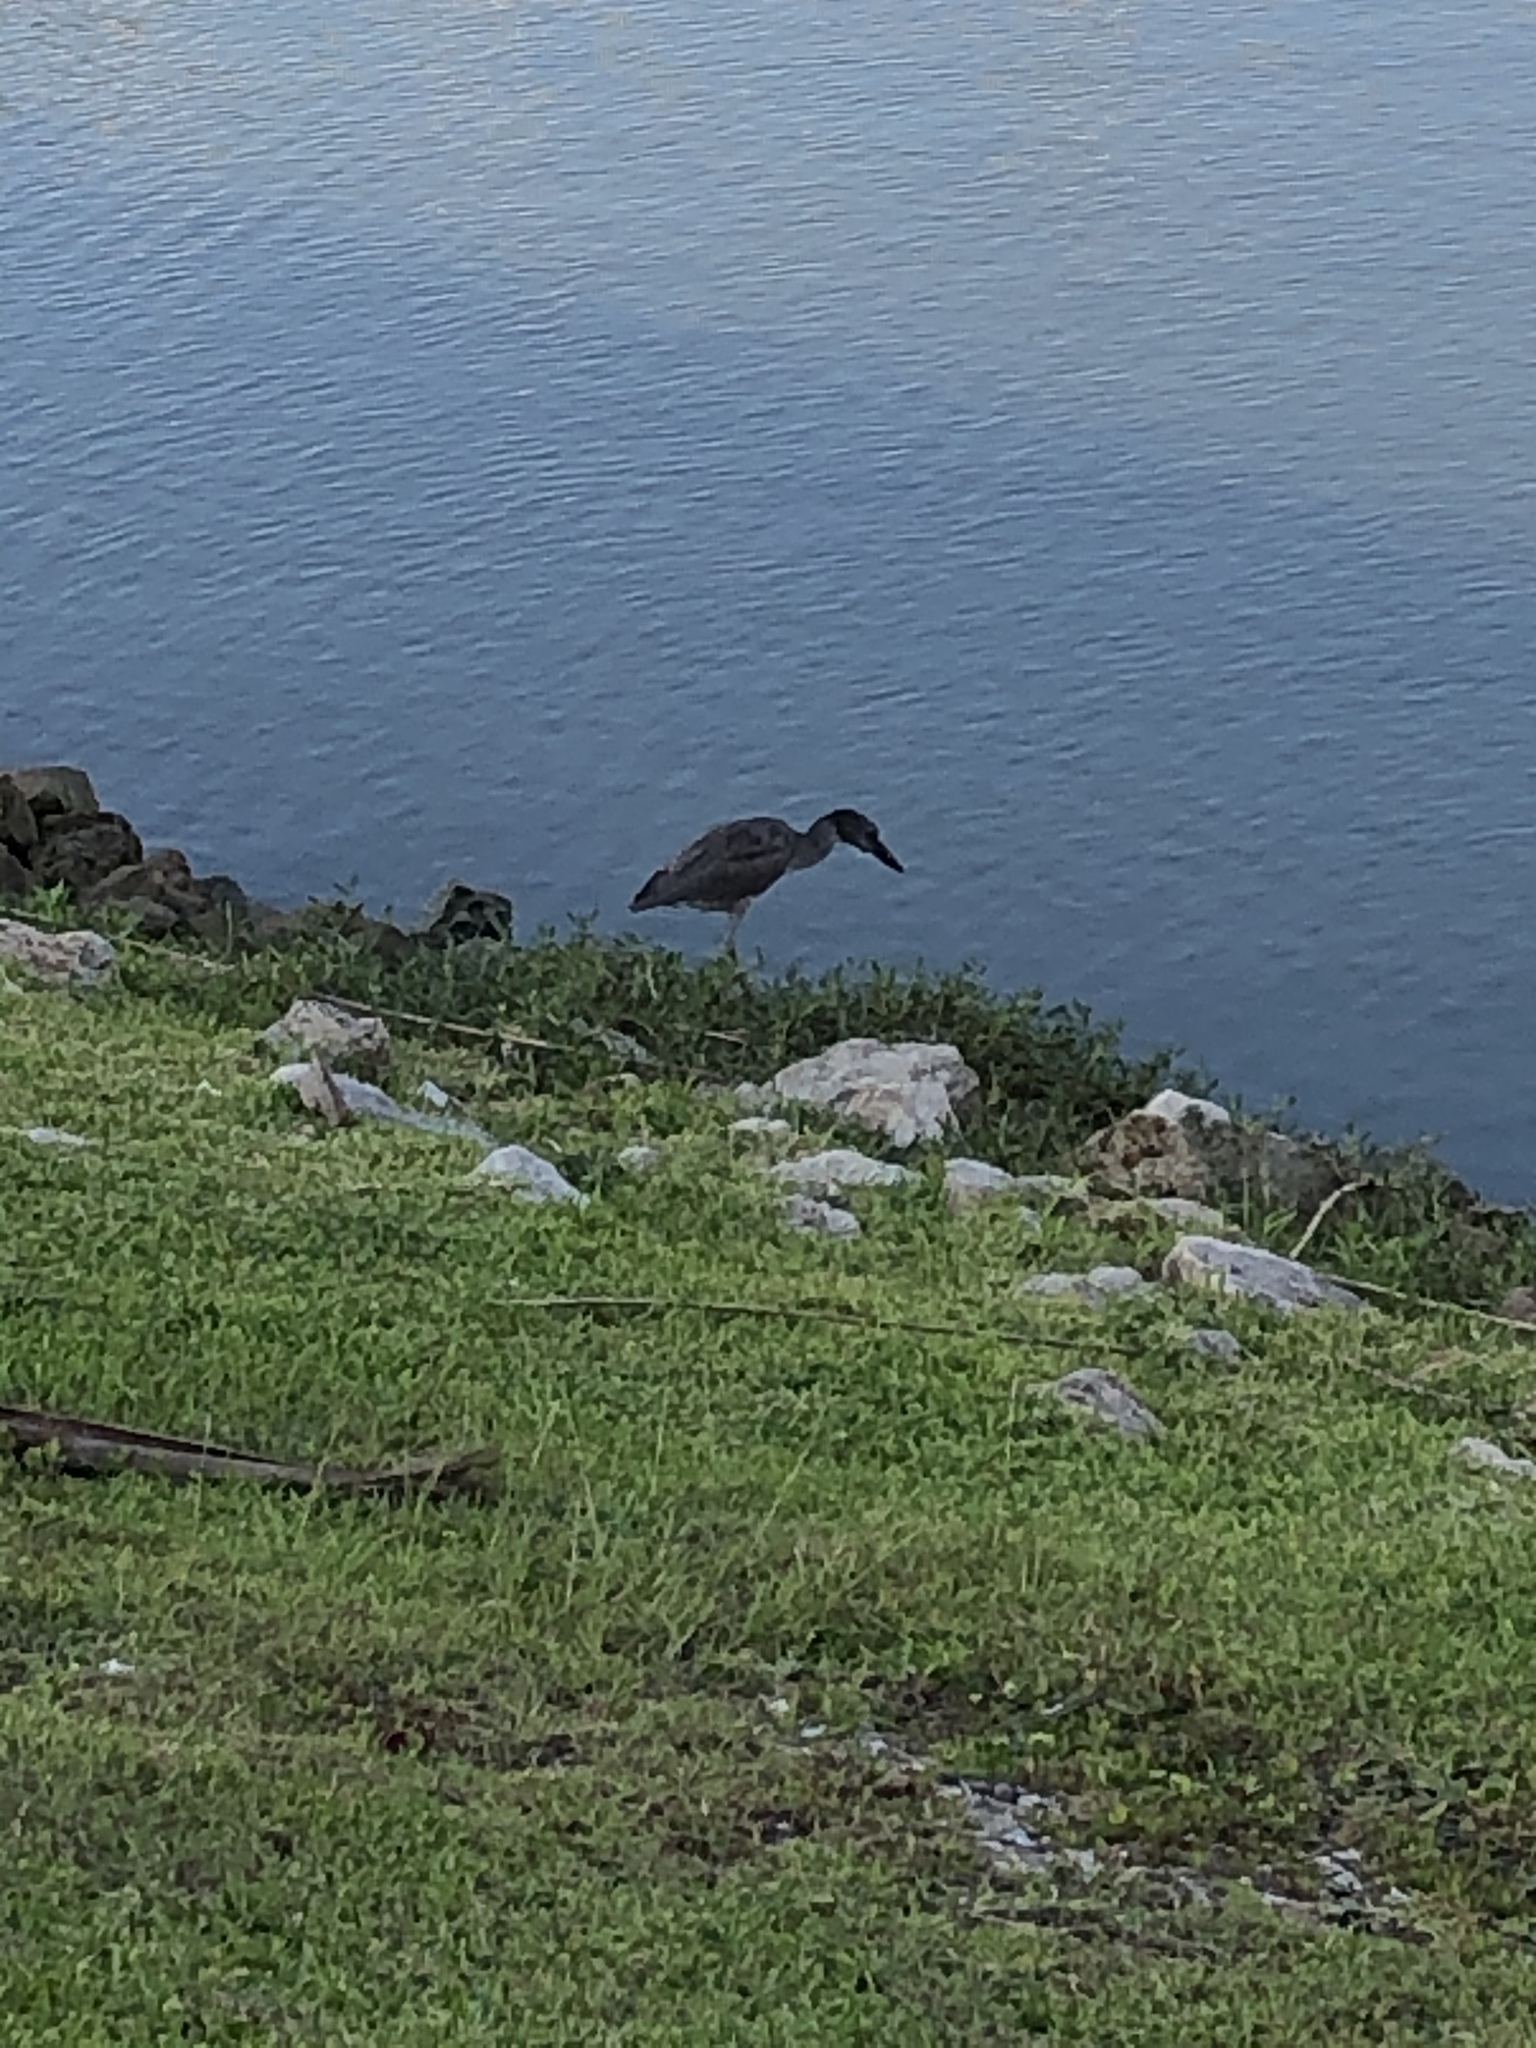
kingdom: Animalia
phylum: Chordata
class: Aves
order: Pelecaniformes
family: Ardeidae
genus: Nyctanassa
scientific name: Nyctanassa violacea
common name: Yellow-crowned night heron
